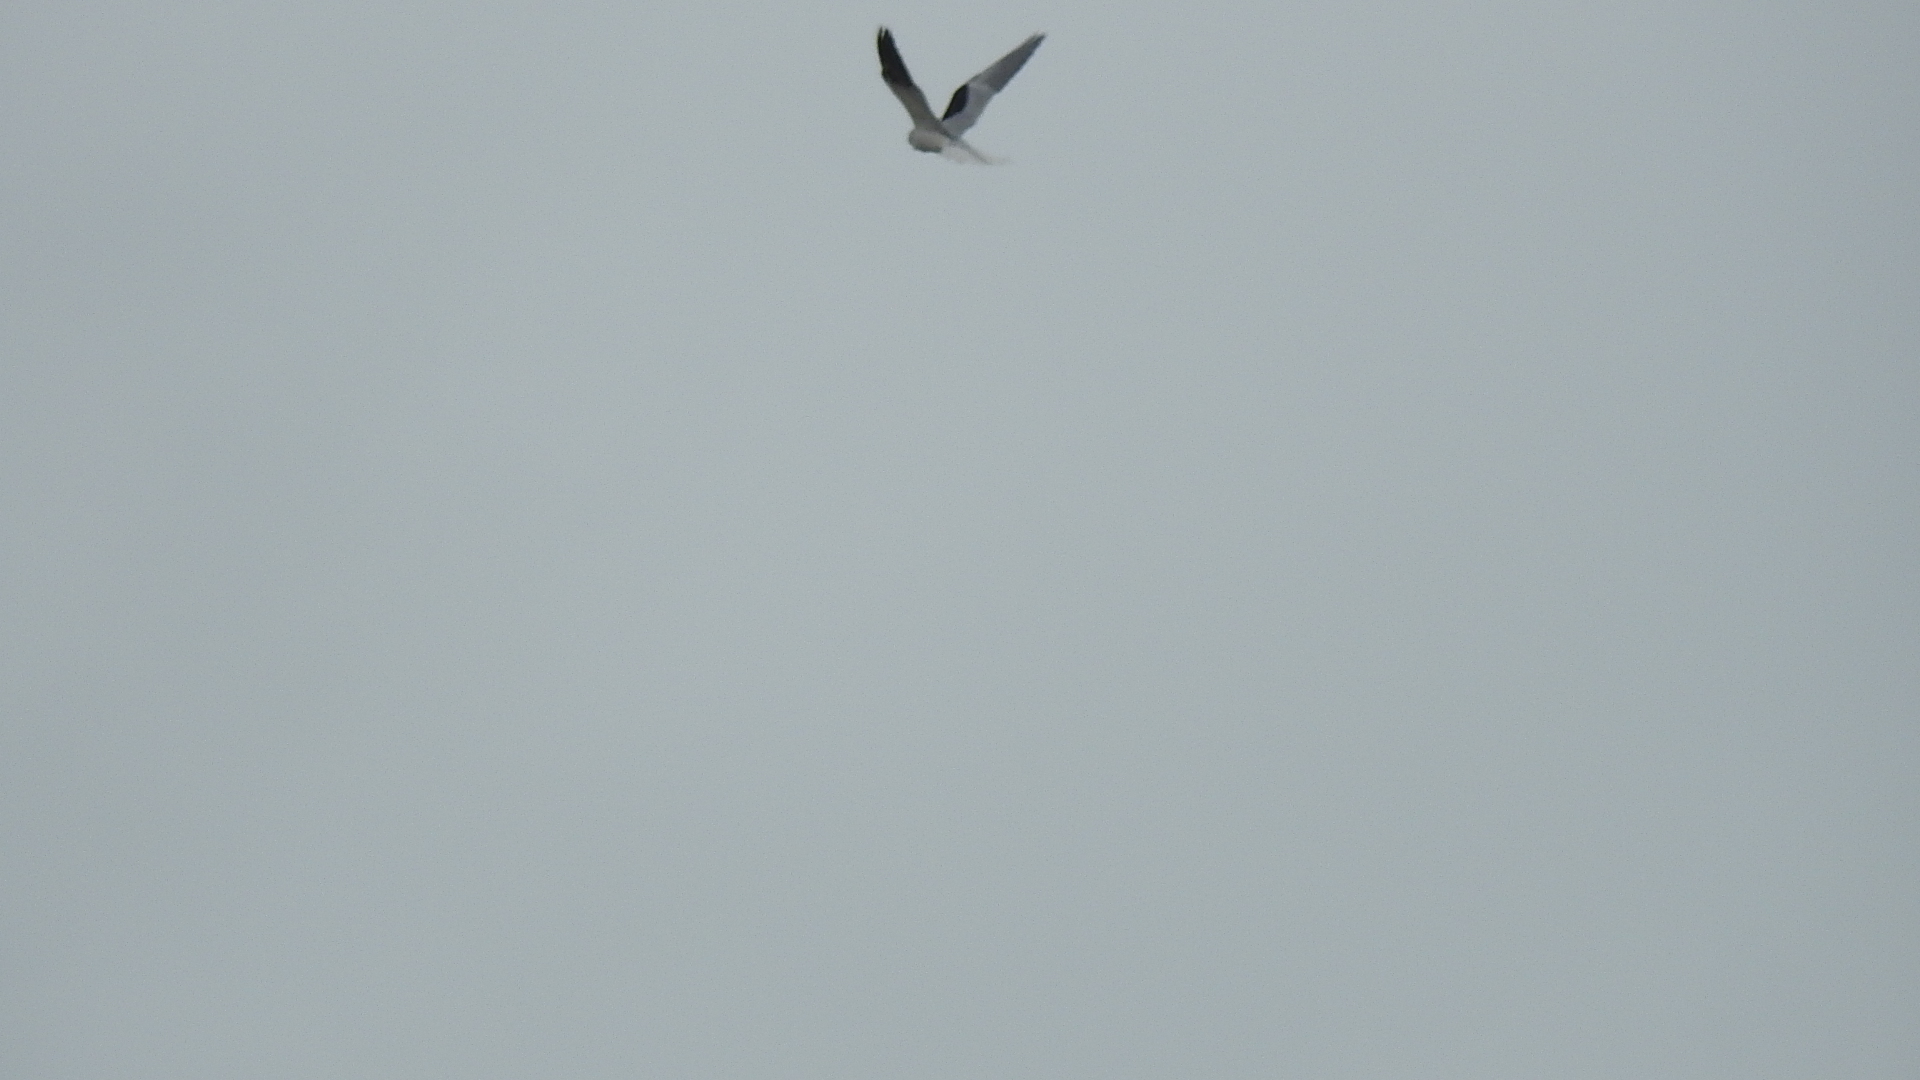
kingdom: Animalia
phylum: Chordata
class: Aves
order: Accipitriformes
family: Accipitridae
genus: Elanus
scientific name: Elanus leucurus
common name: White-tailed kite
